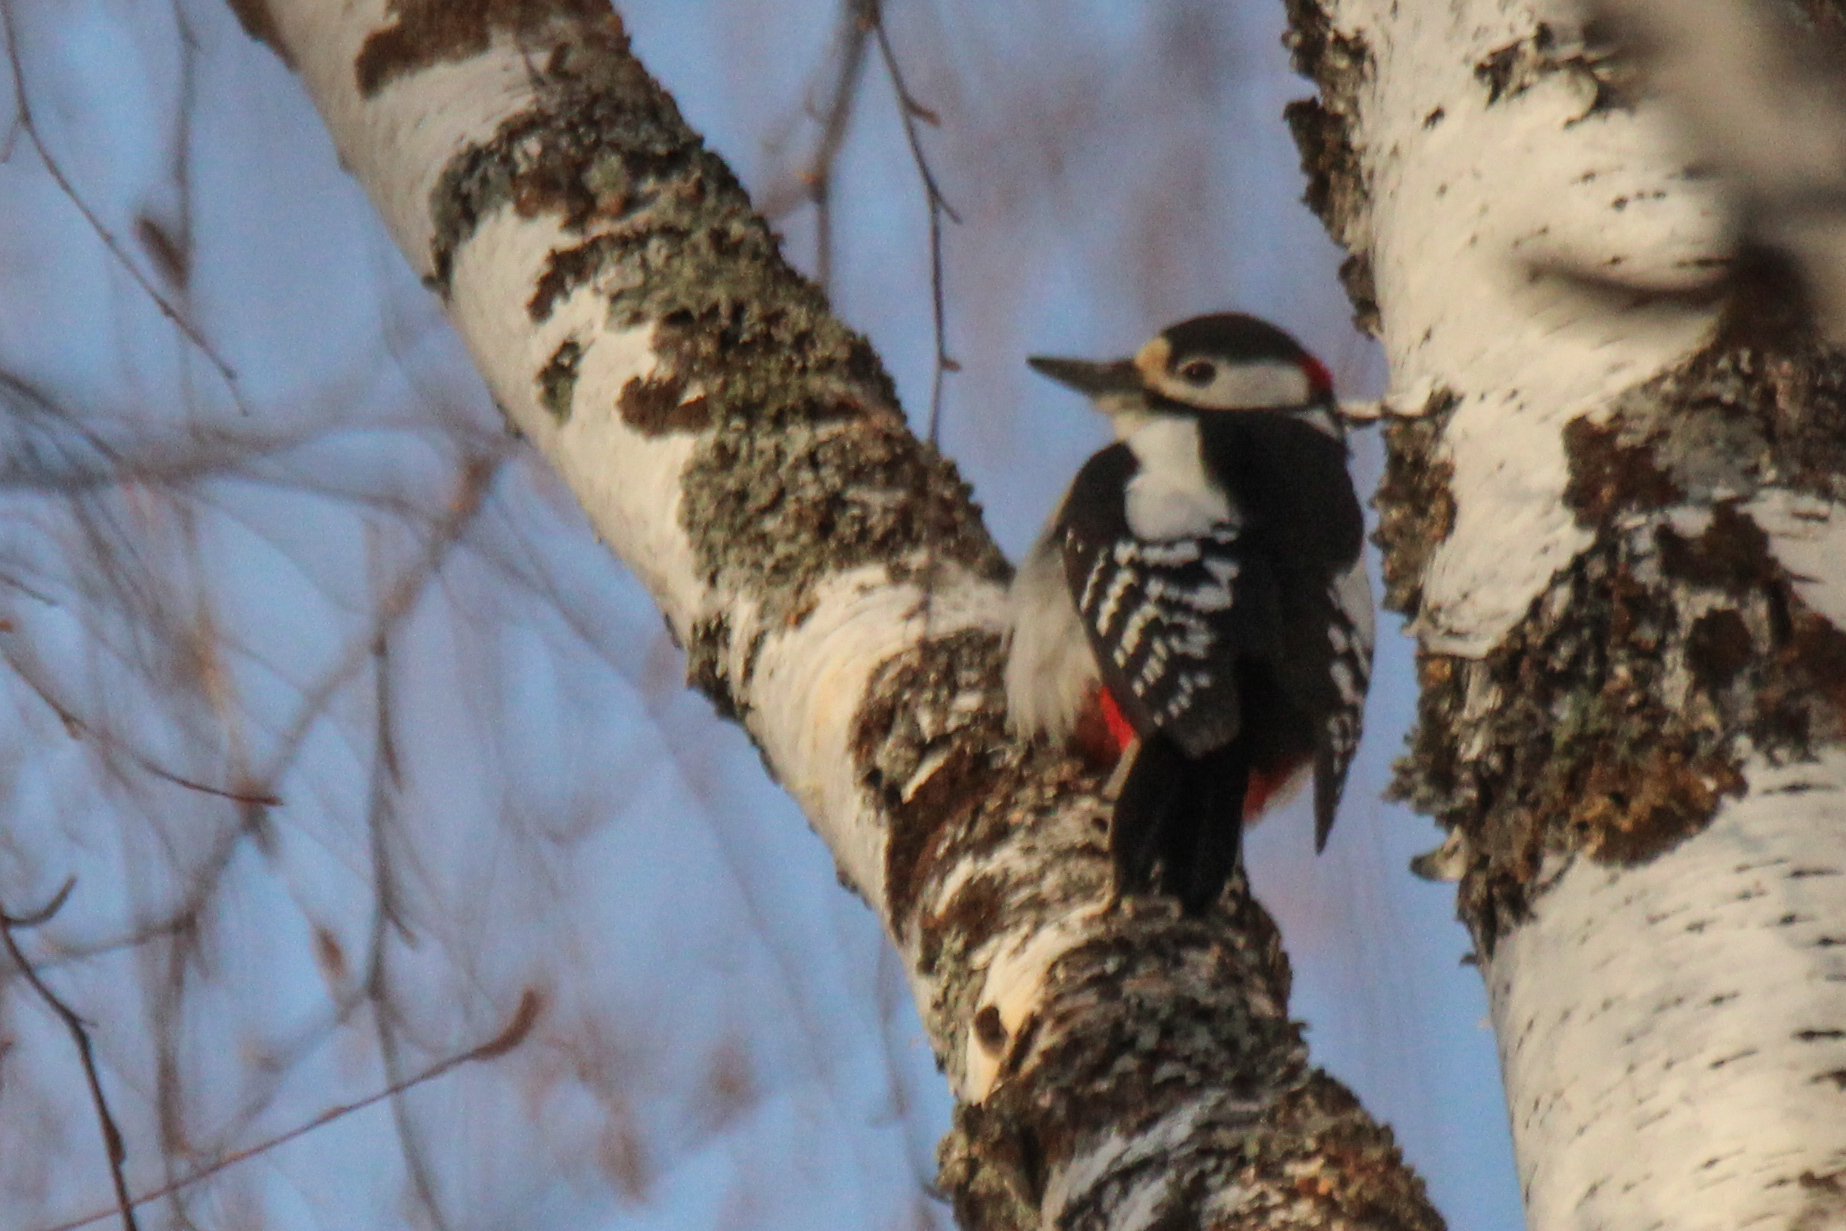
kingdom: Animalia
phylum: Chordata
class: Aves
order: Piciformes
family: Picidae
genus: Dendrocopos
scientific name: Dendrocopos major
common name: Great spotted woodpecker
